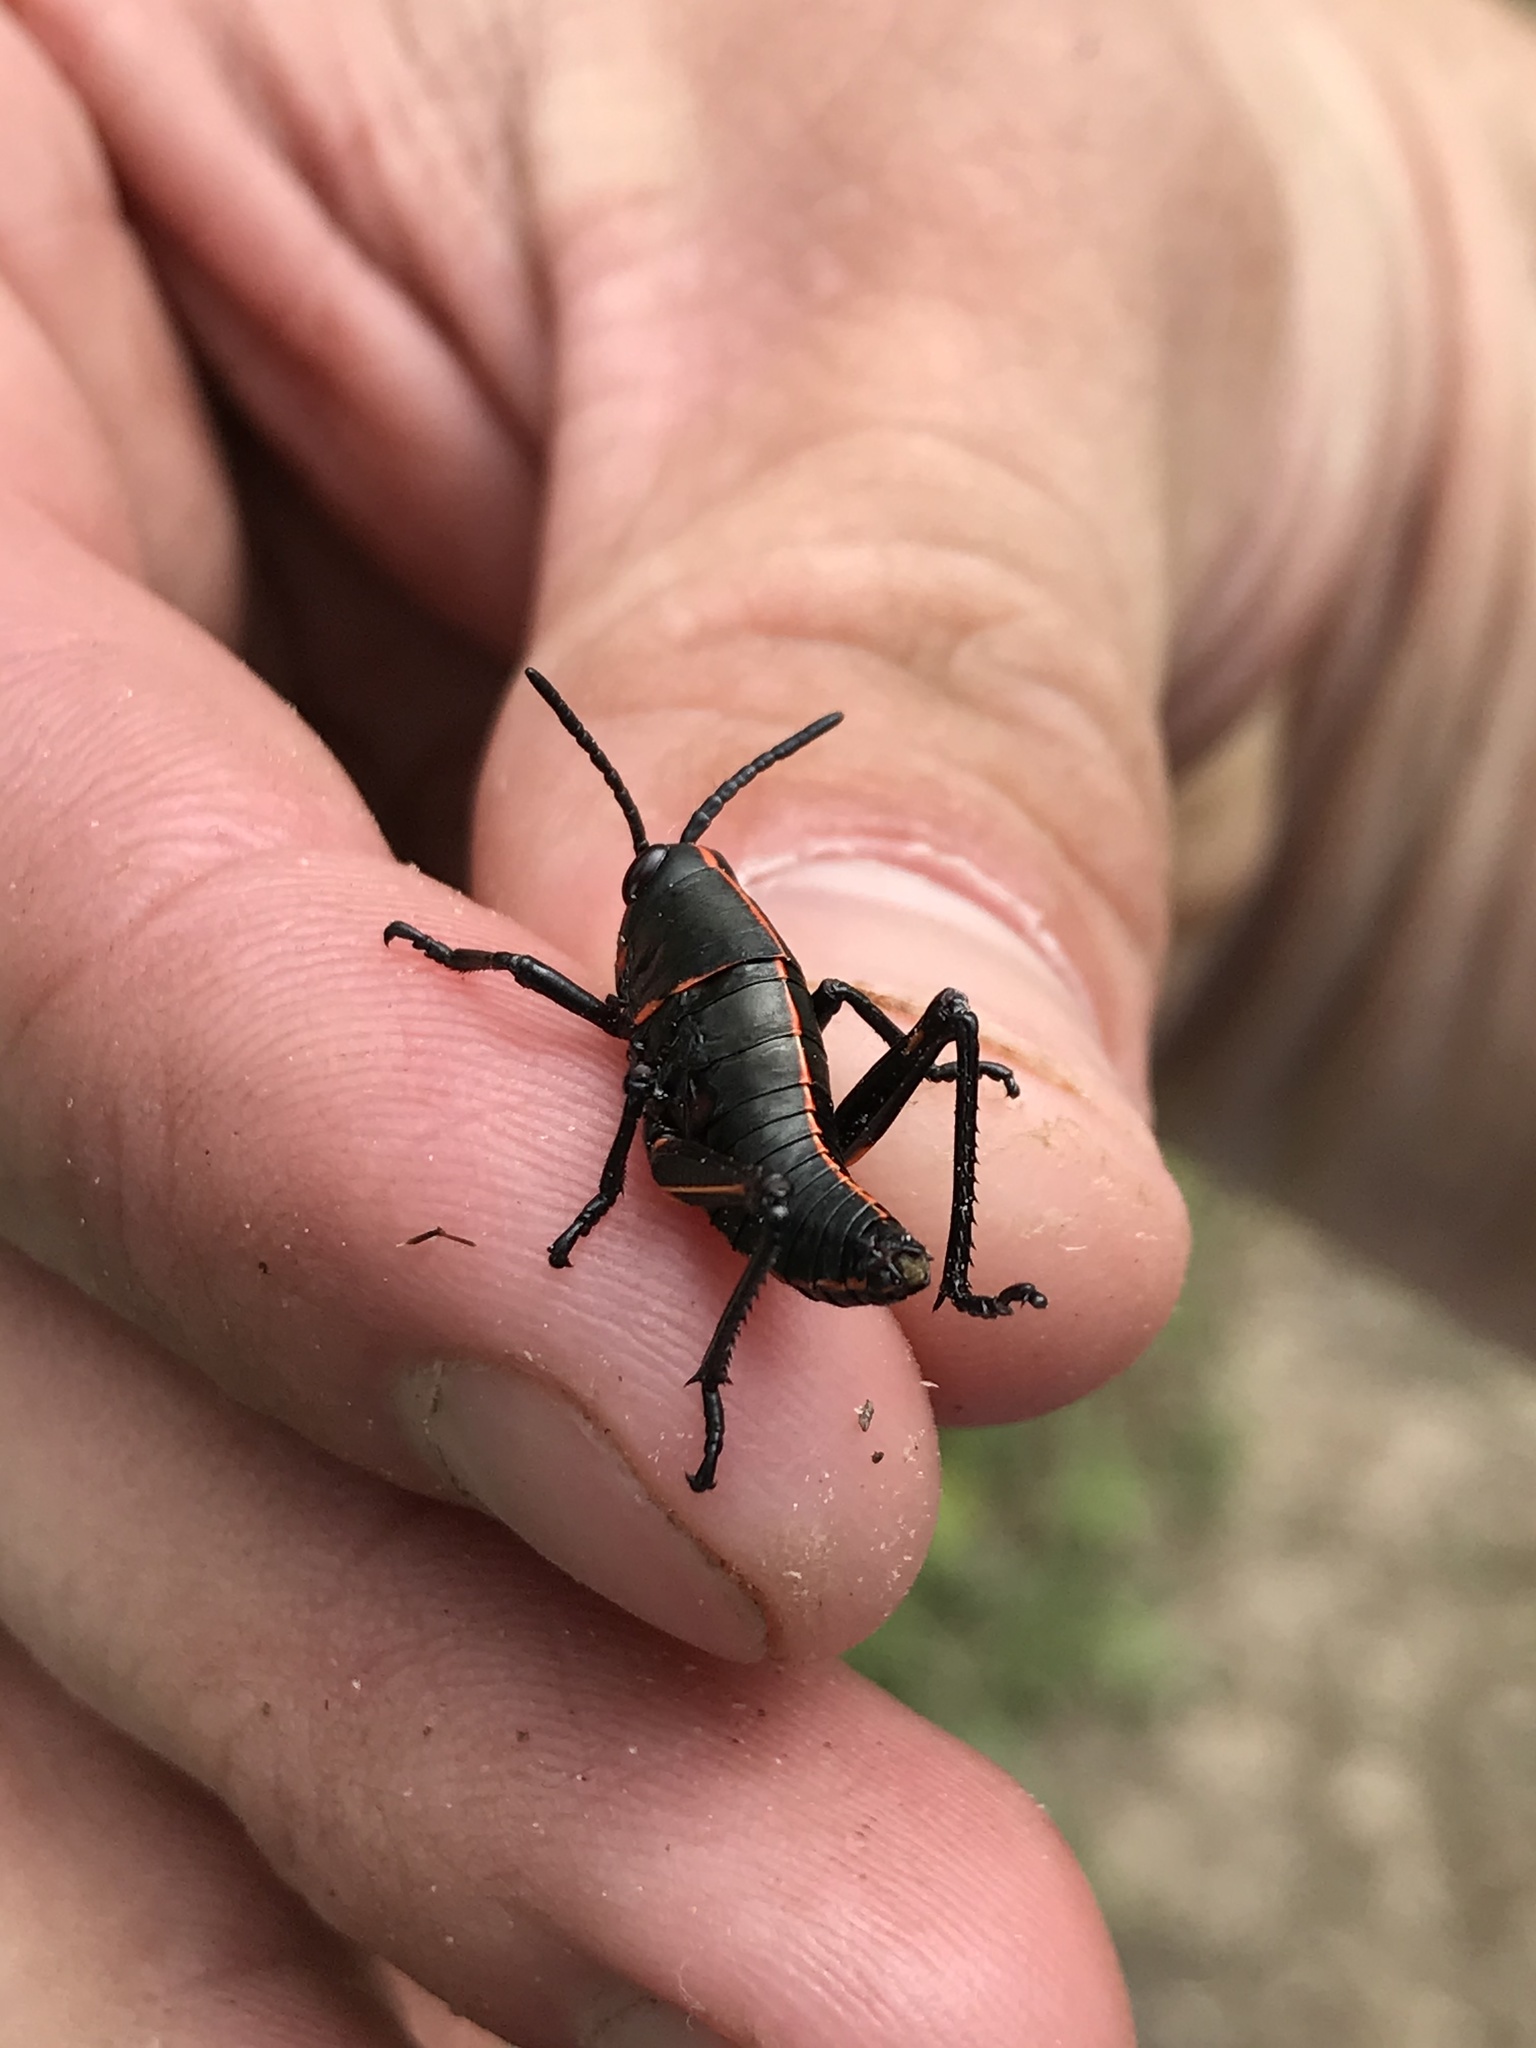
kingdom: Animalia
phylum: Arthropoda
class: Insecta
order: Orthoptera
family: Romaleidae
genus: Romalea
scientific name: Romalea microptera
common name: Eastern lubber grasshopper
